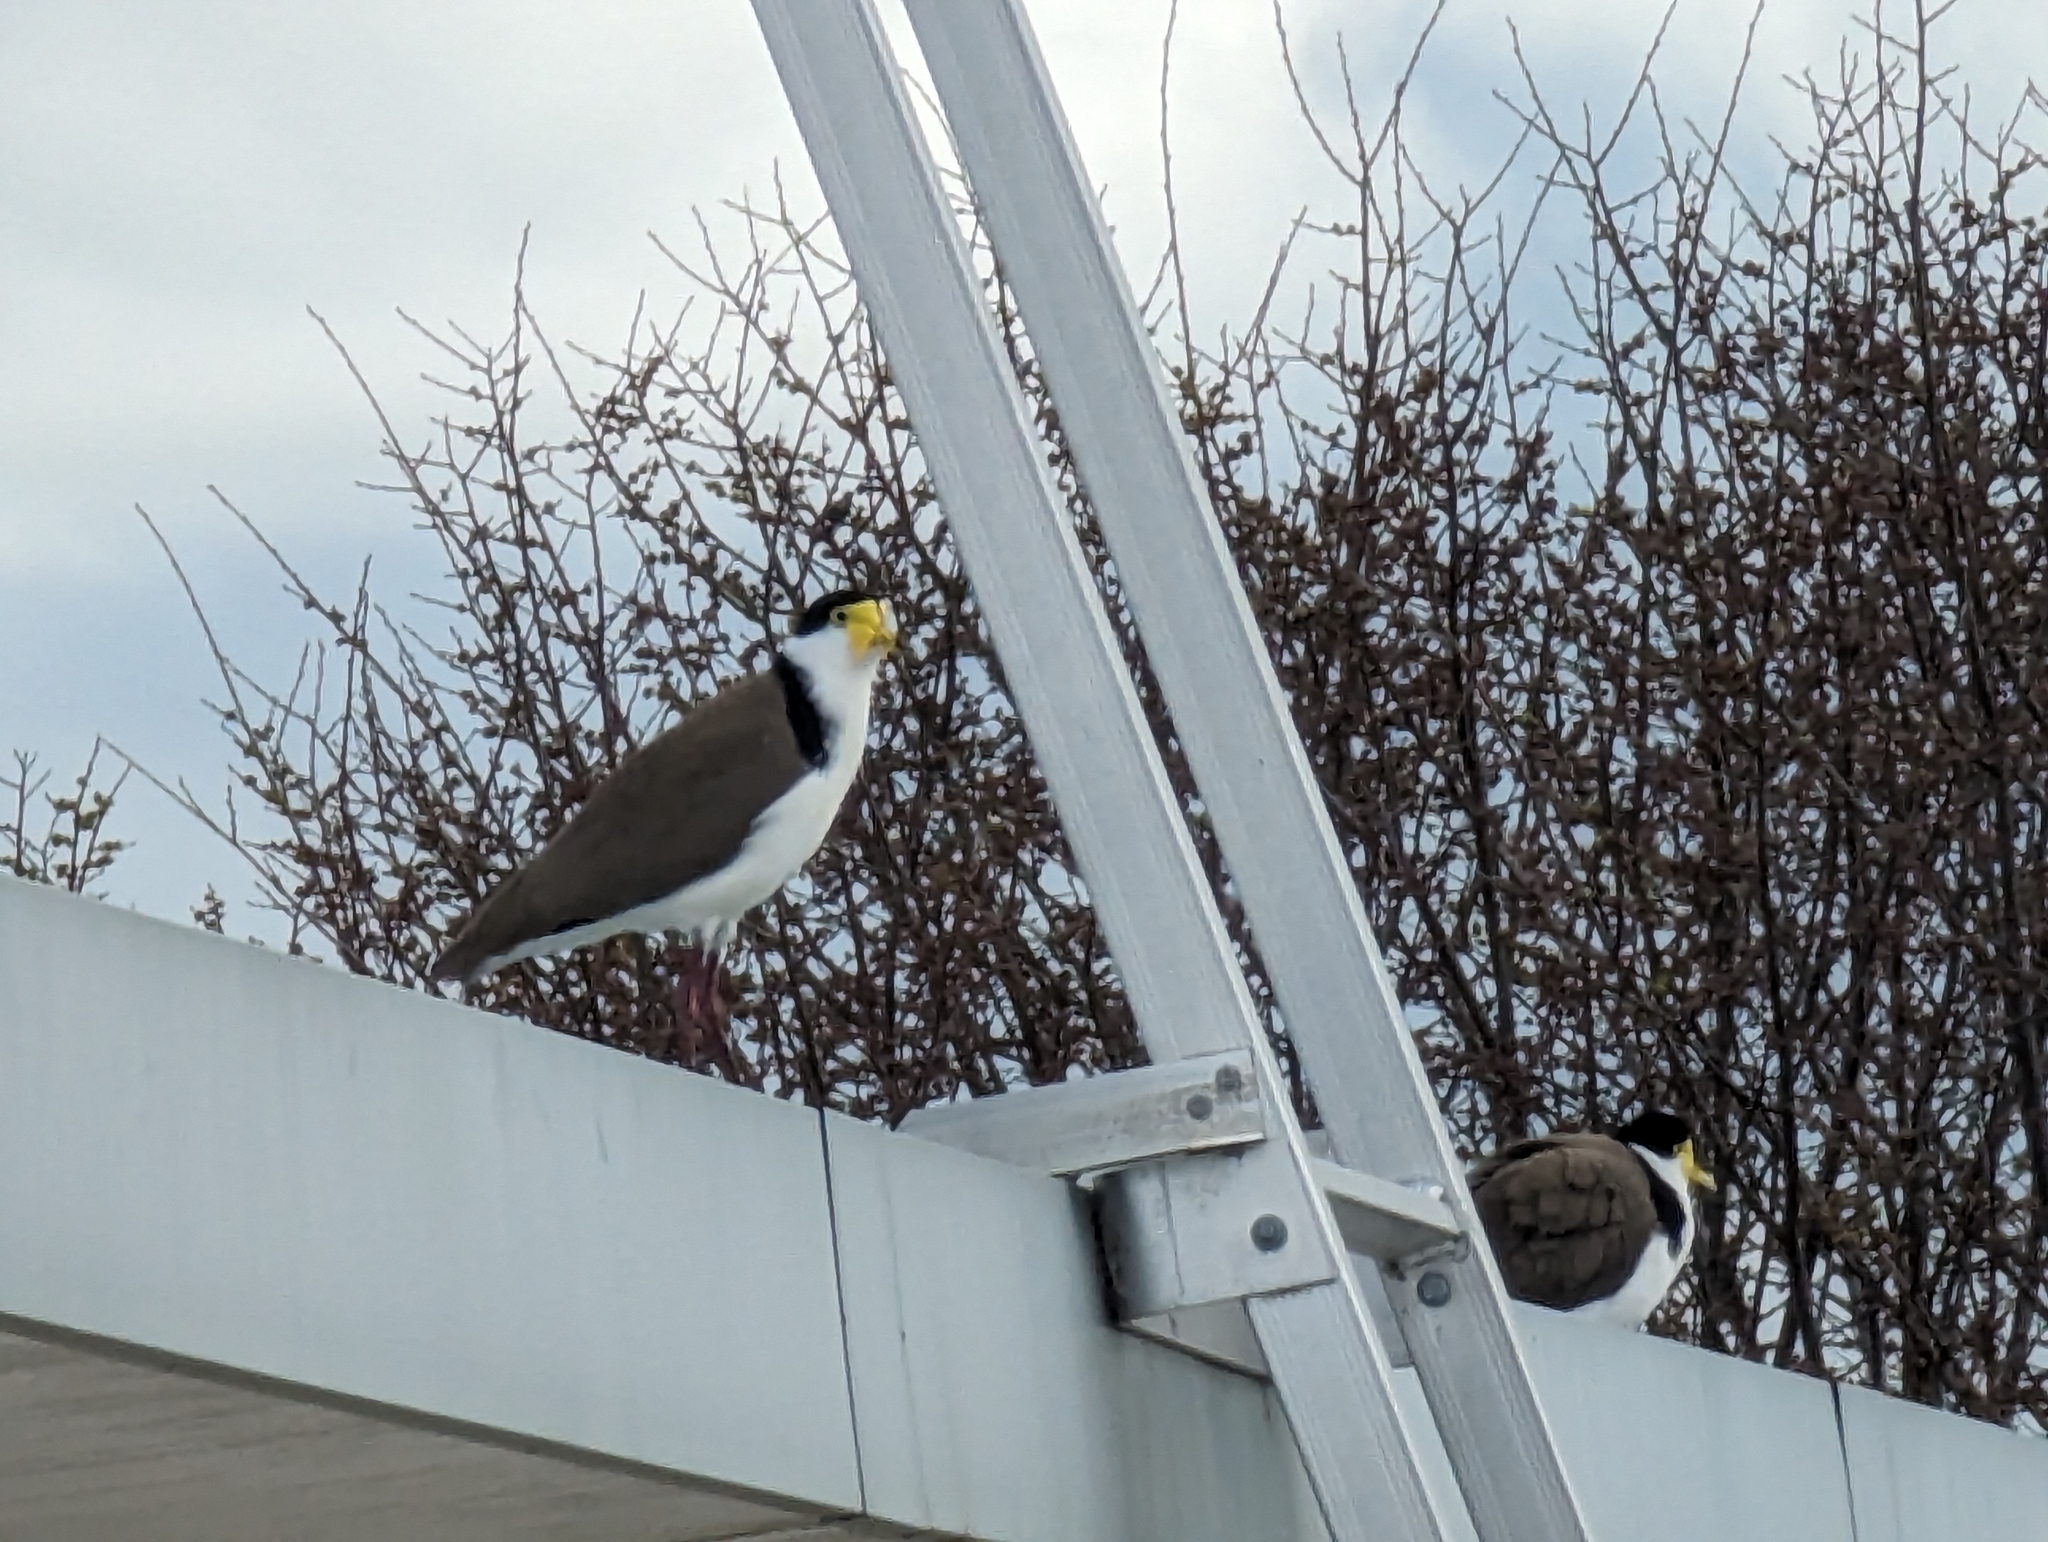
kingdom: Animalia
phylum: Chordata
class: Aves
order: Charadriiformes
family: Charadriidae
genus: Vanellus
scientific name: Vanellus miles
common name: Masked lapwing
